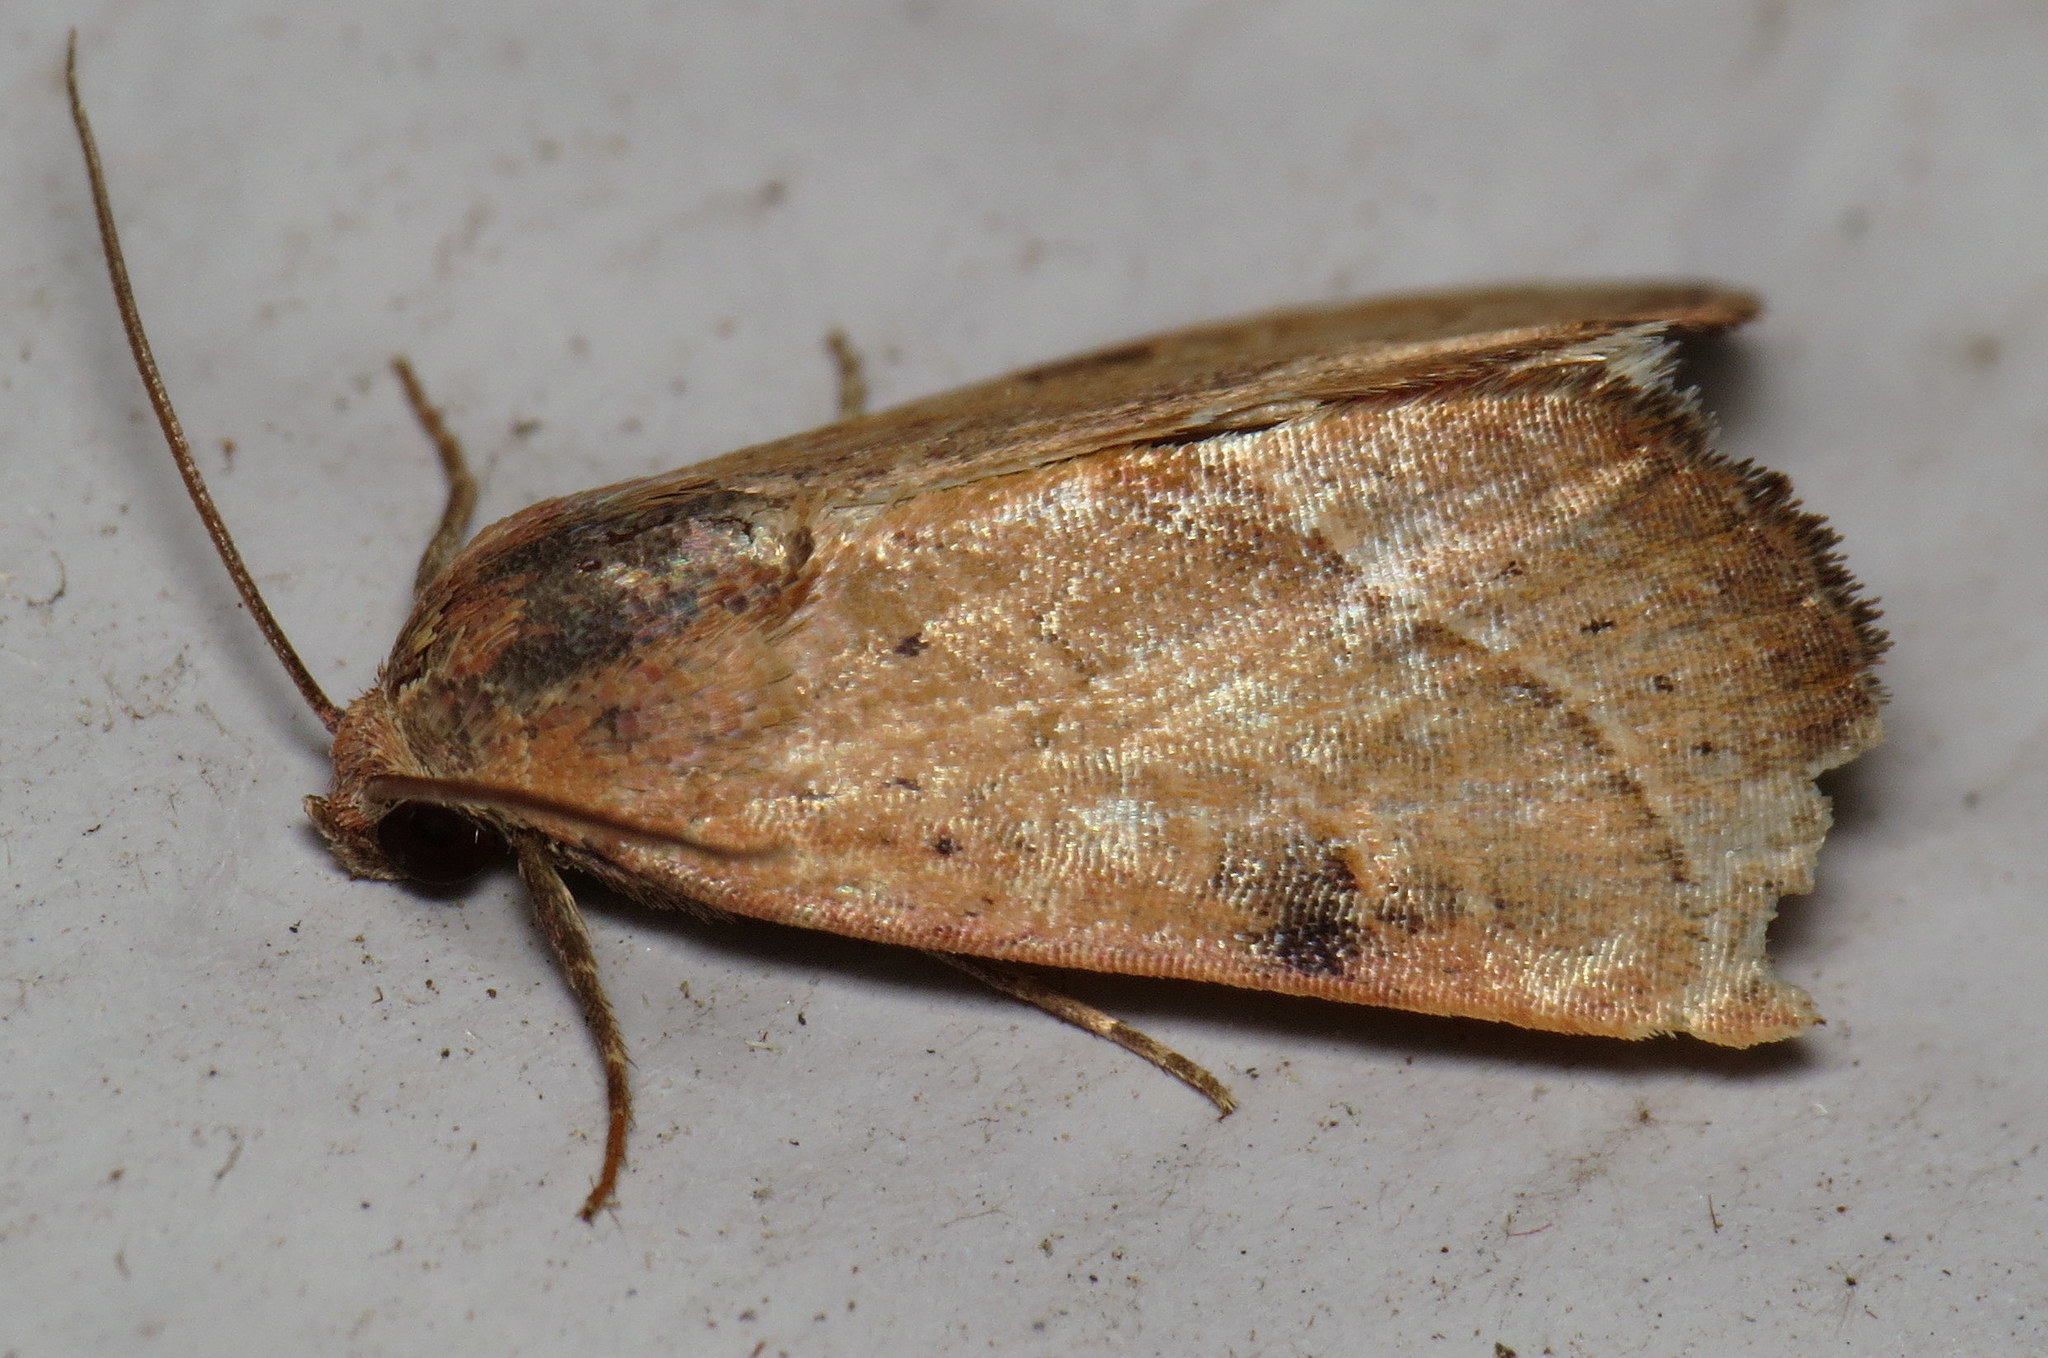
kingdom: Animalia
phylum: Arthropoda
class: Insecta
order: Lepidoptera
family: Noctuidae
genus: Galgula
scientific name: Galgula partita
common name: Wedgeling
